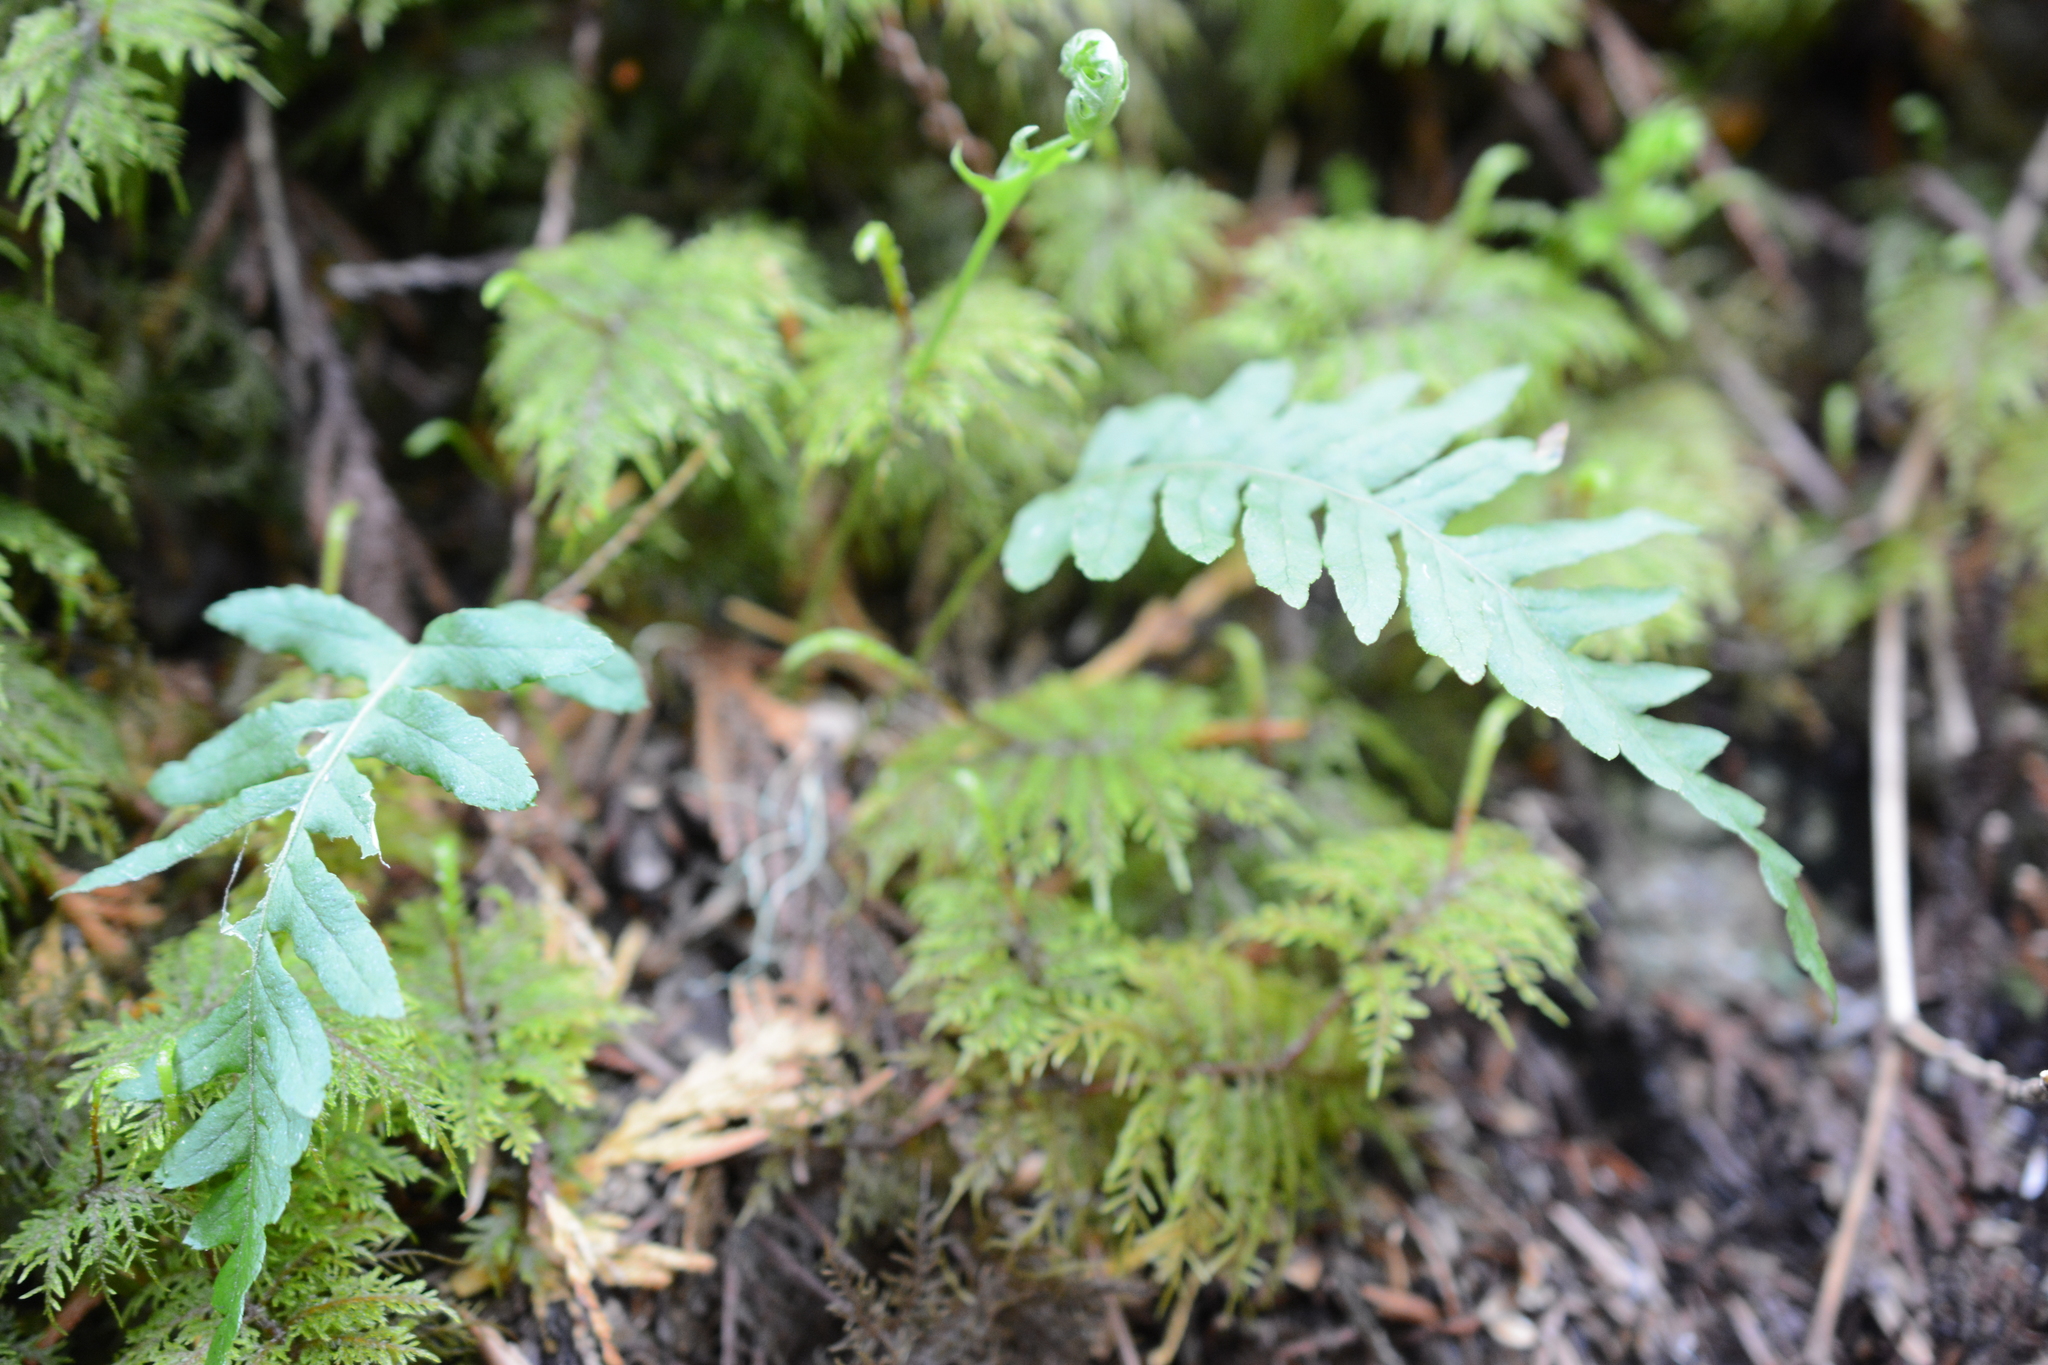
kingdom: Plantae
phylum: Tracheophyta
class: Polypodiopsida
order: Polypodiales
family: Polypodiaceae
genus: Polypodium
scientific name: Polypodium glycyrrhiza
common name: Licorice fern
